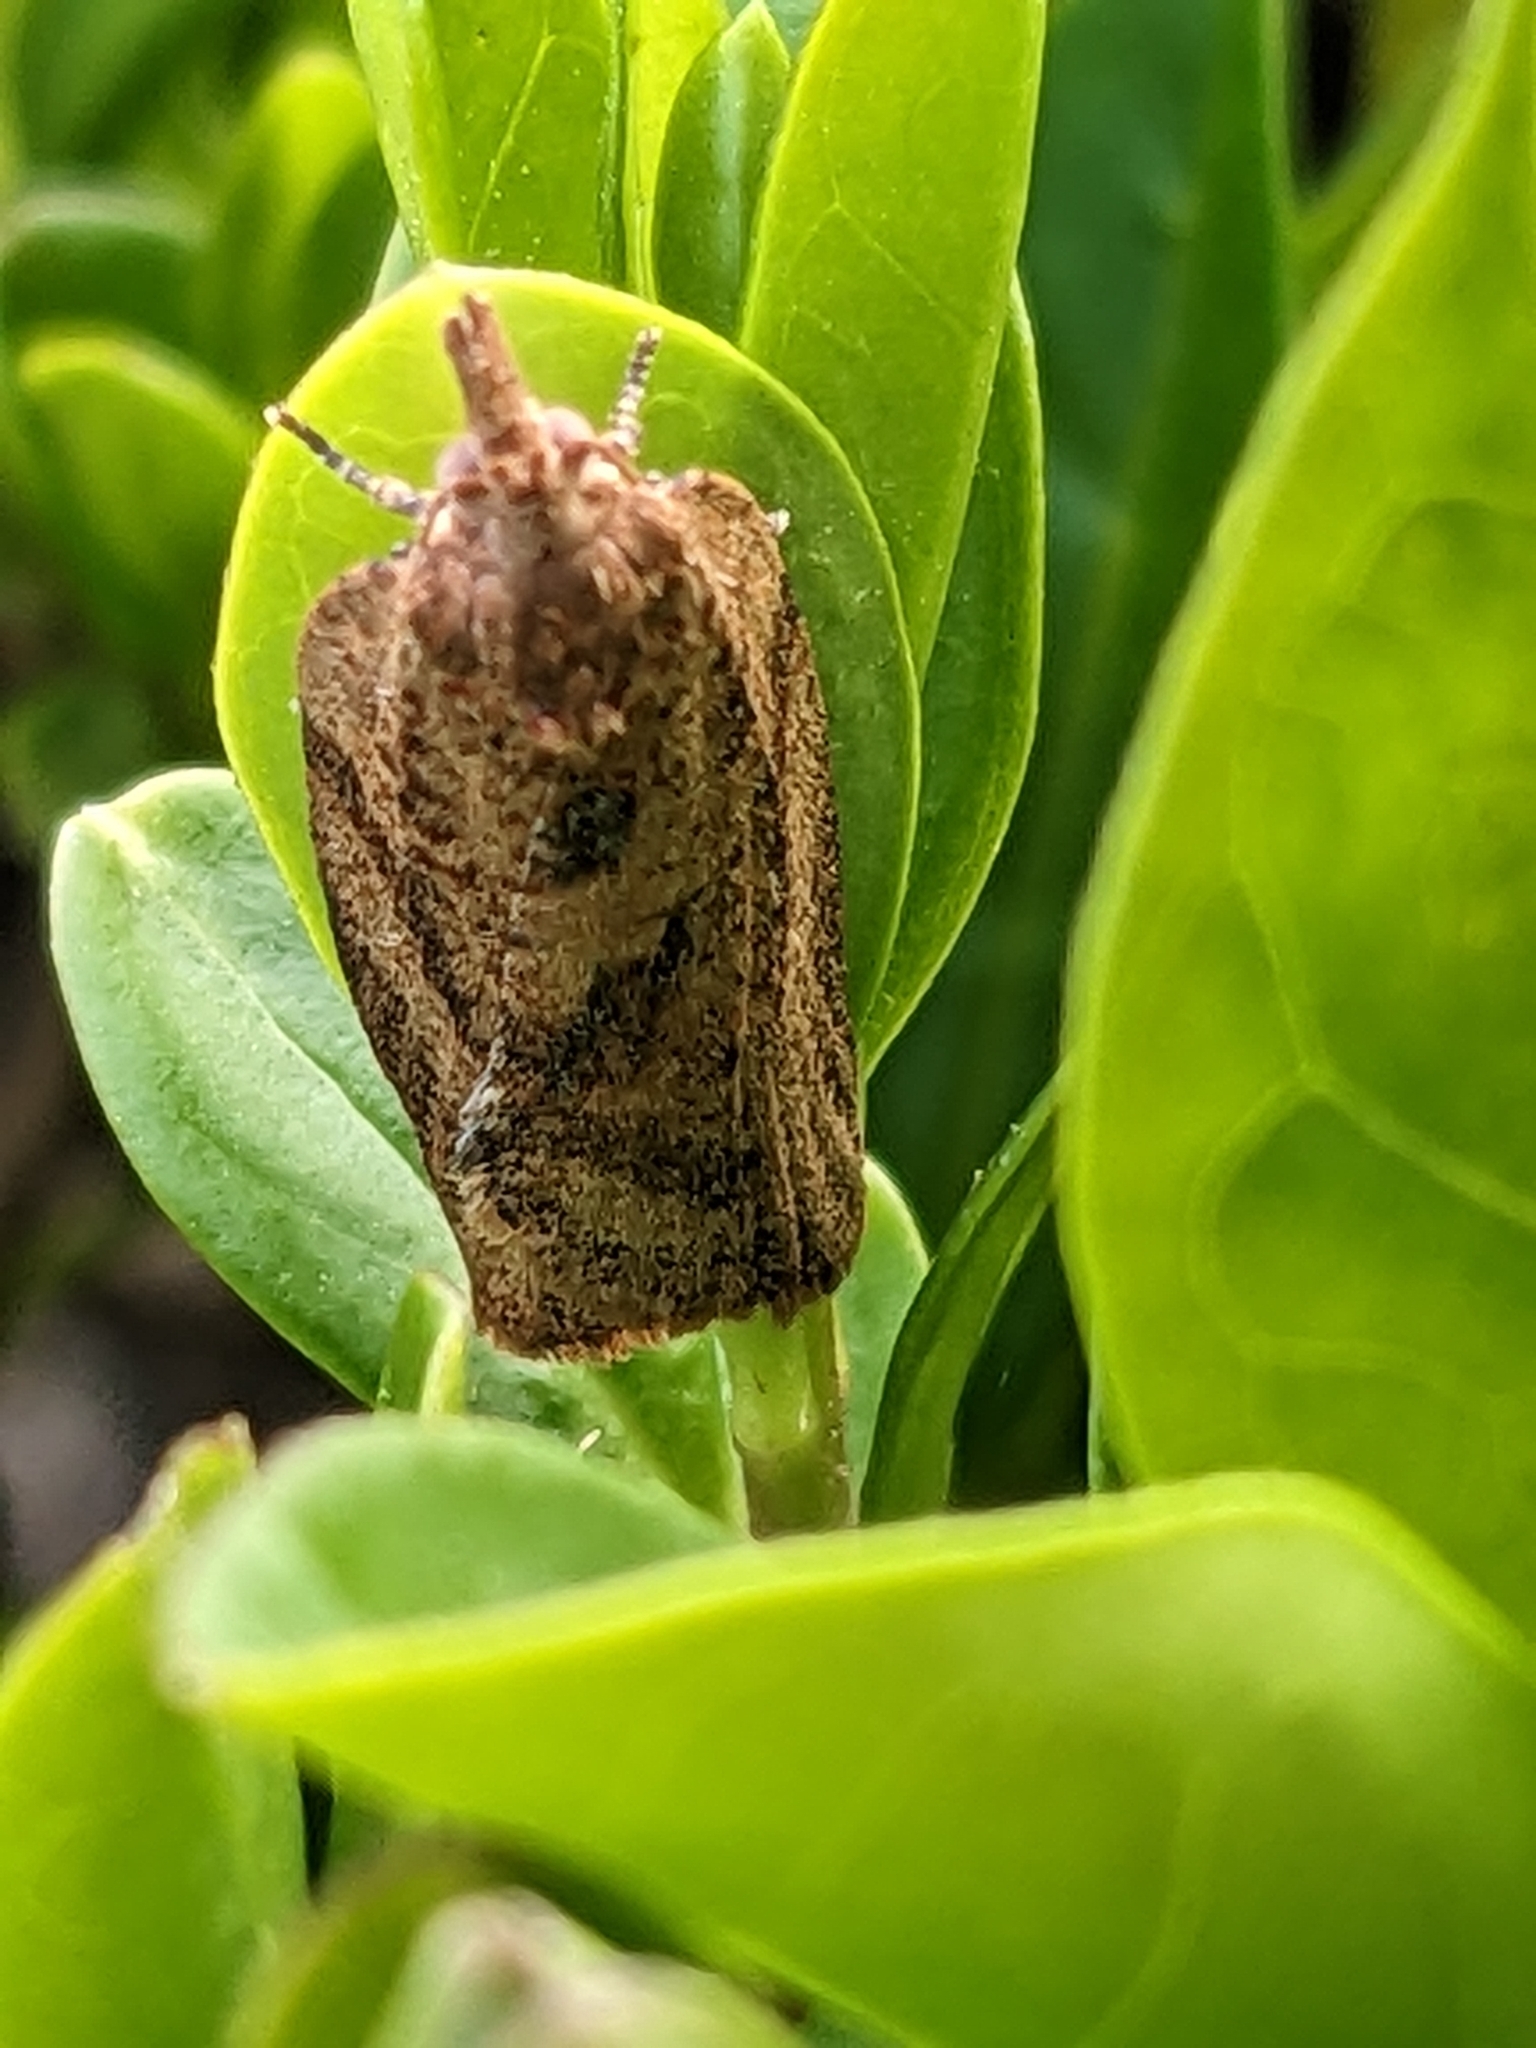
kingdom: Animalia
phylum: Arthropoda
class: Insecta
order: Lepidoptera
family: Tortricidae
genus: Epiphyas
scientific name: Epiphyas postvittana
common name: Light brown apple moth
